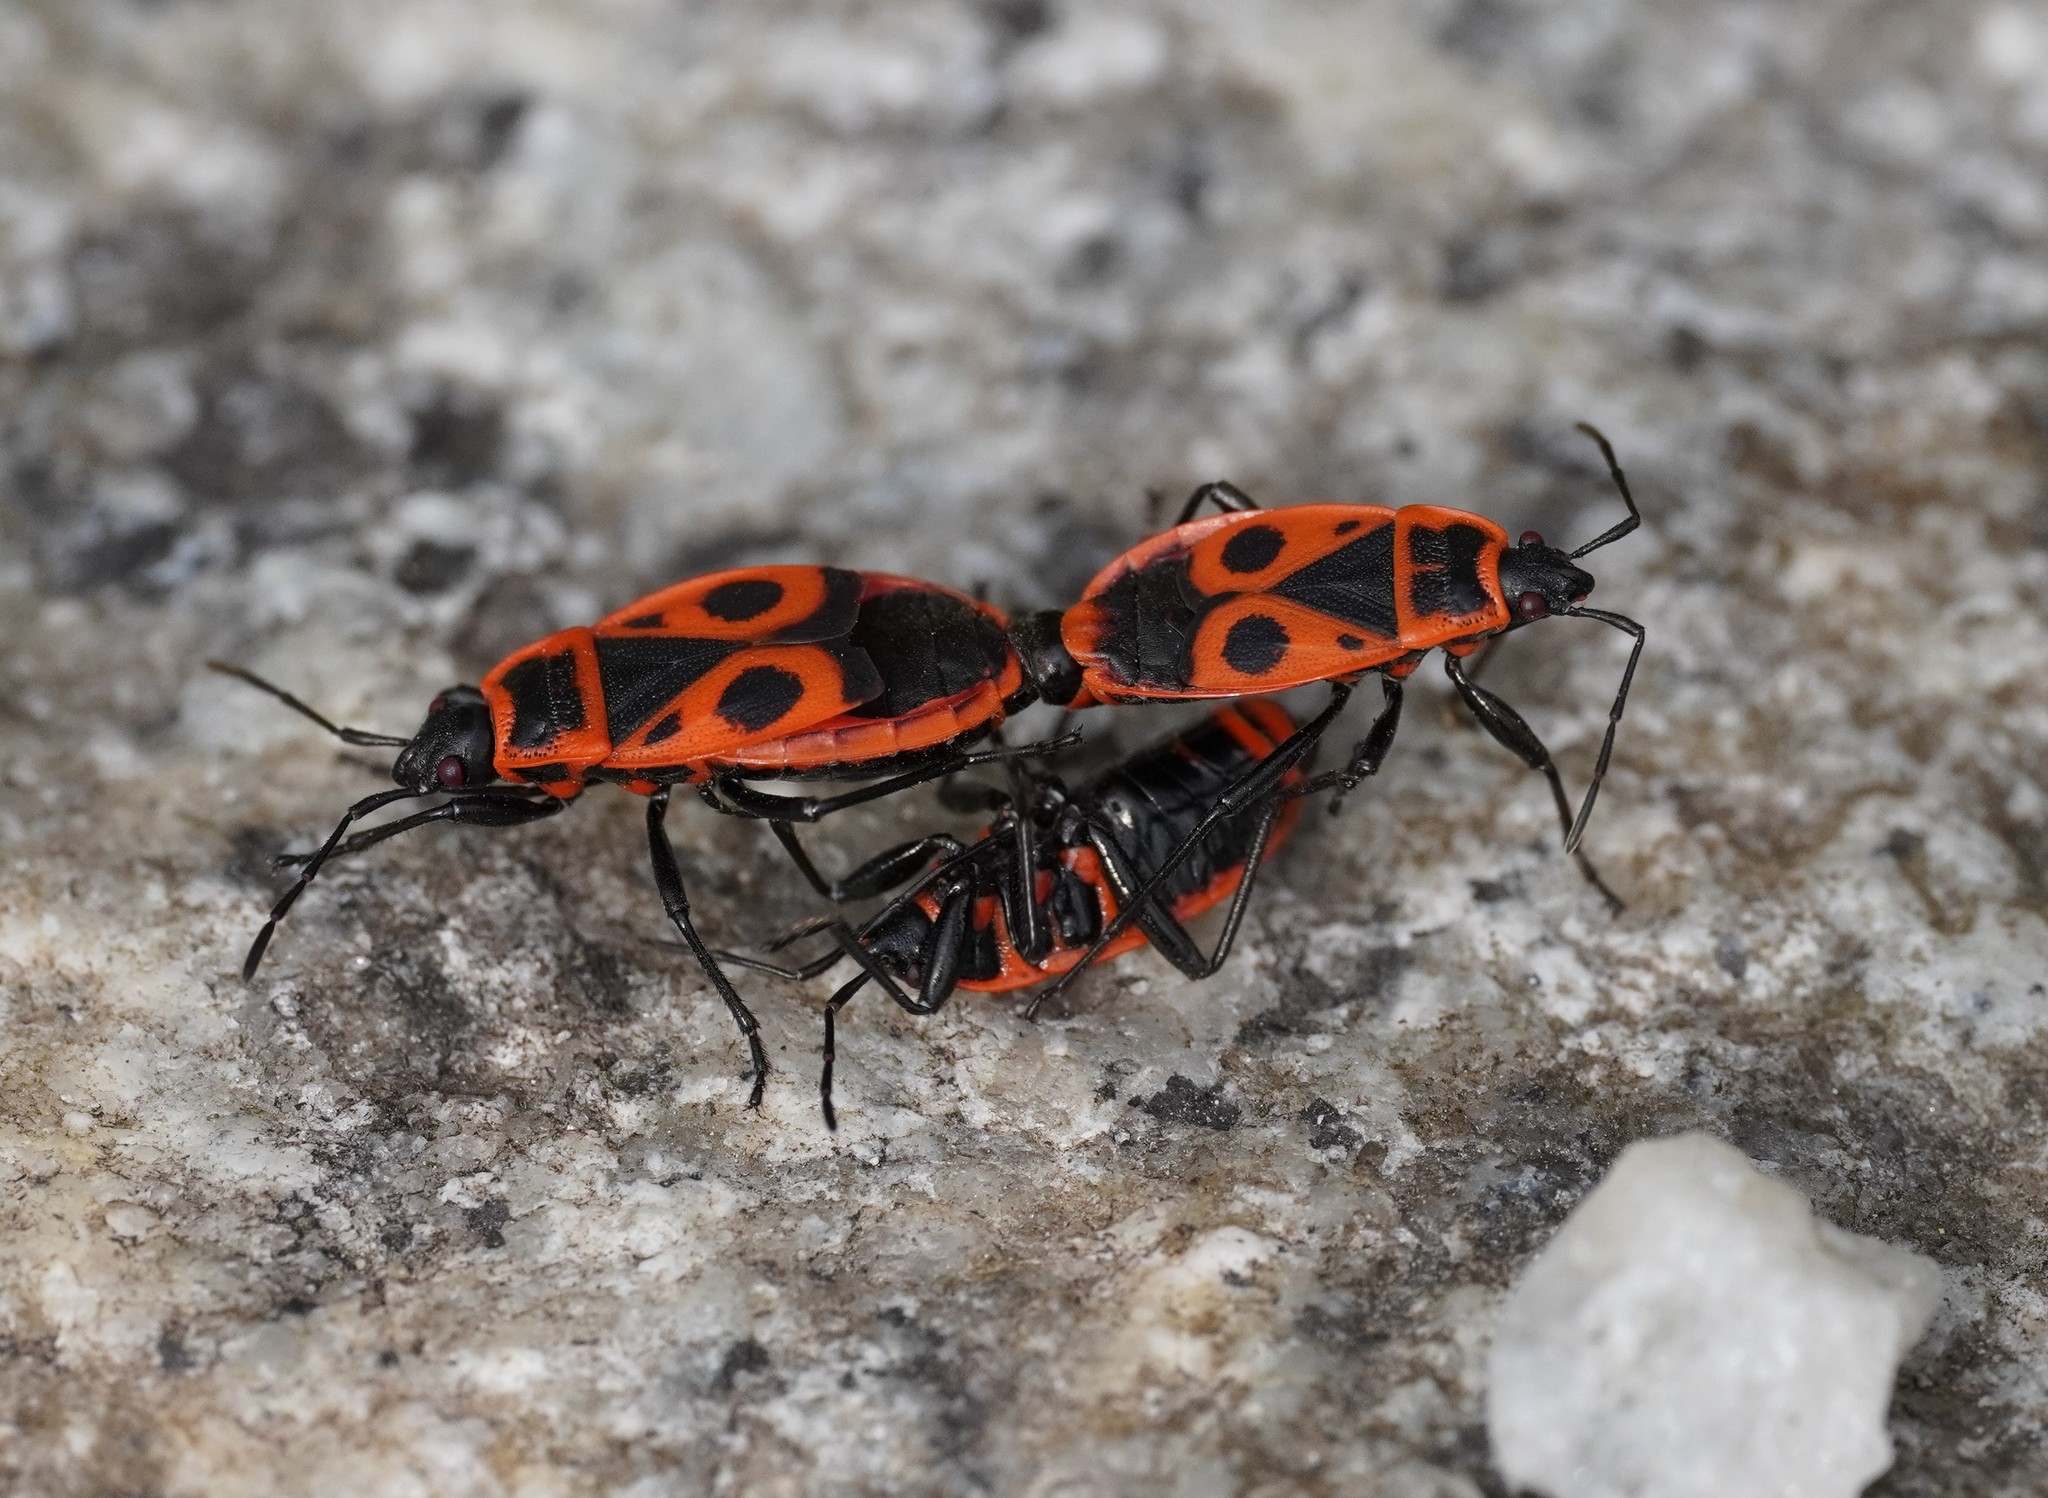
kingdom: Animalia
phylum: Arthropoda
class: Insecta
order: Hemiptera
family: Pyrrhocoridae
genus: Pyrrhocoris
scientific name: Pyrrhocoris apterus
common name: Firebug
